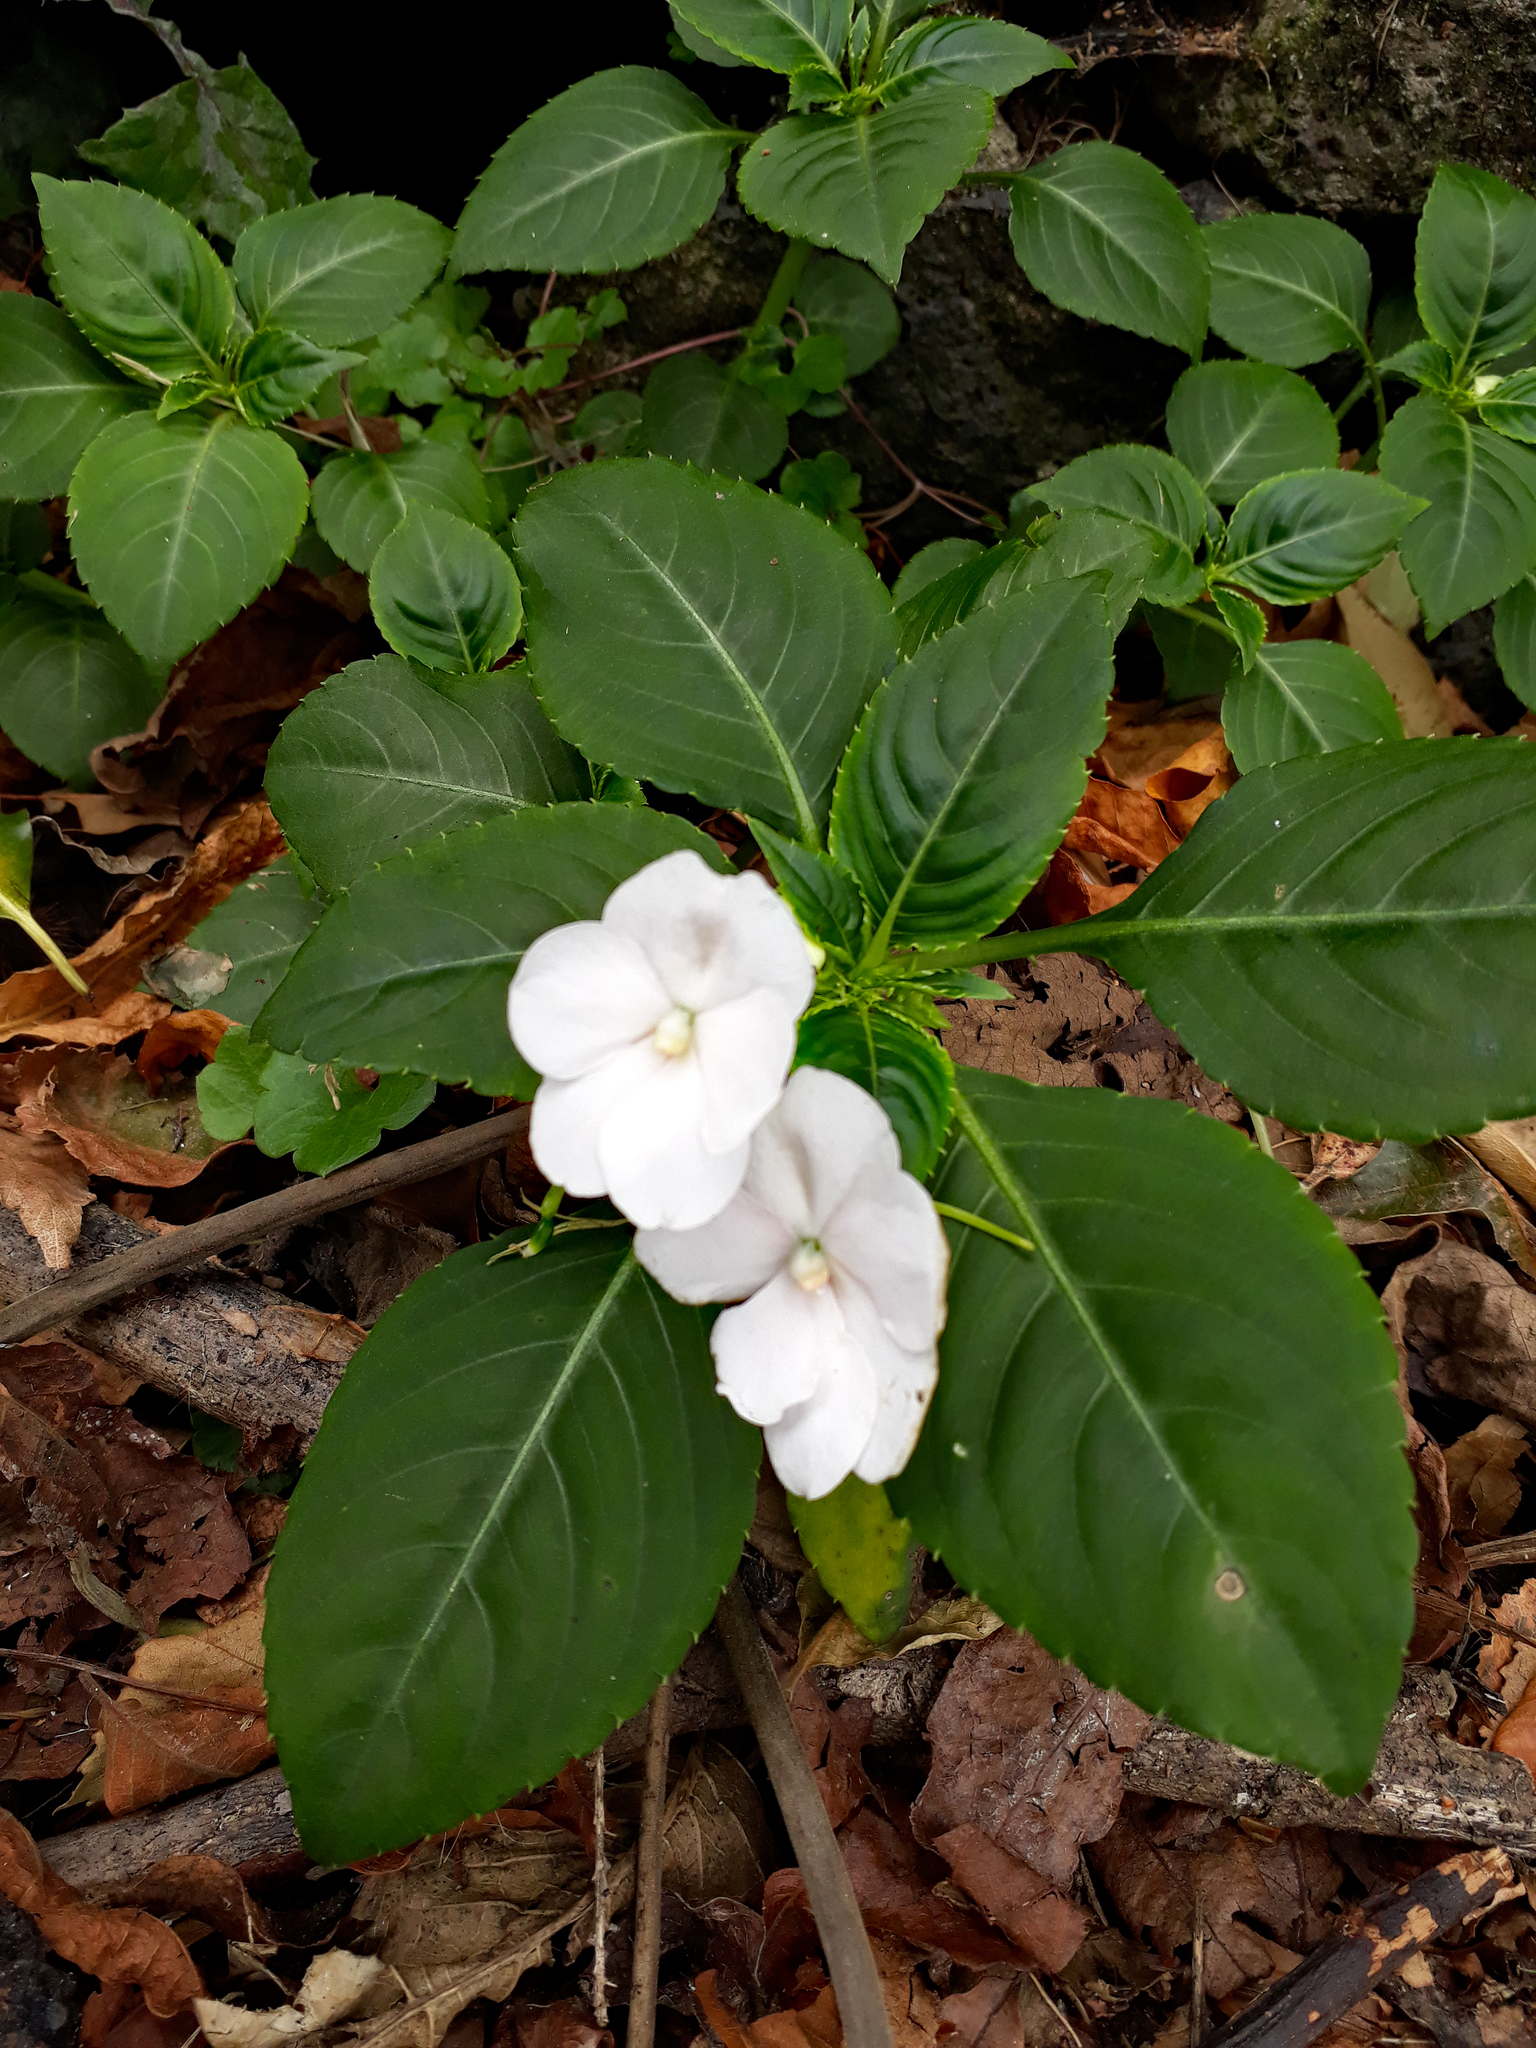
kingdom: Plantae
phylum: Tracheophyta
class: Magnoliopsida
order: Ericales
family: Balsaminaceae
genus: Impatiens
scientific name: Impatiens walleriana
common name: Buzzy lizzy
